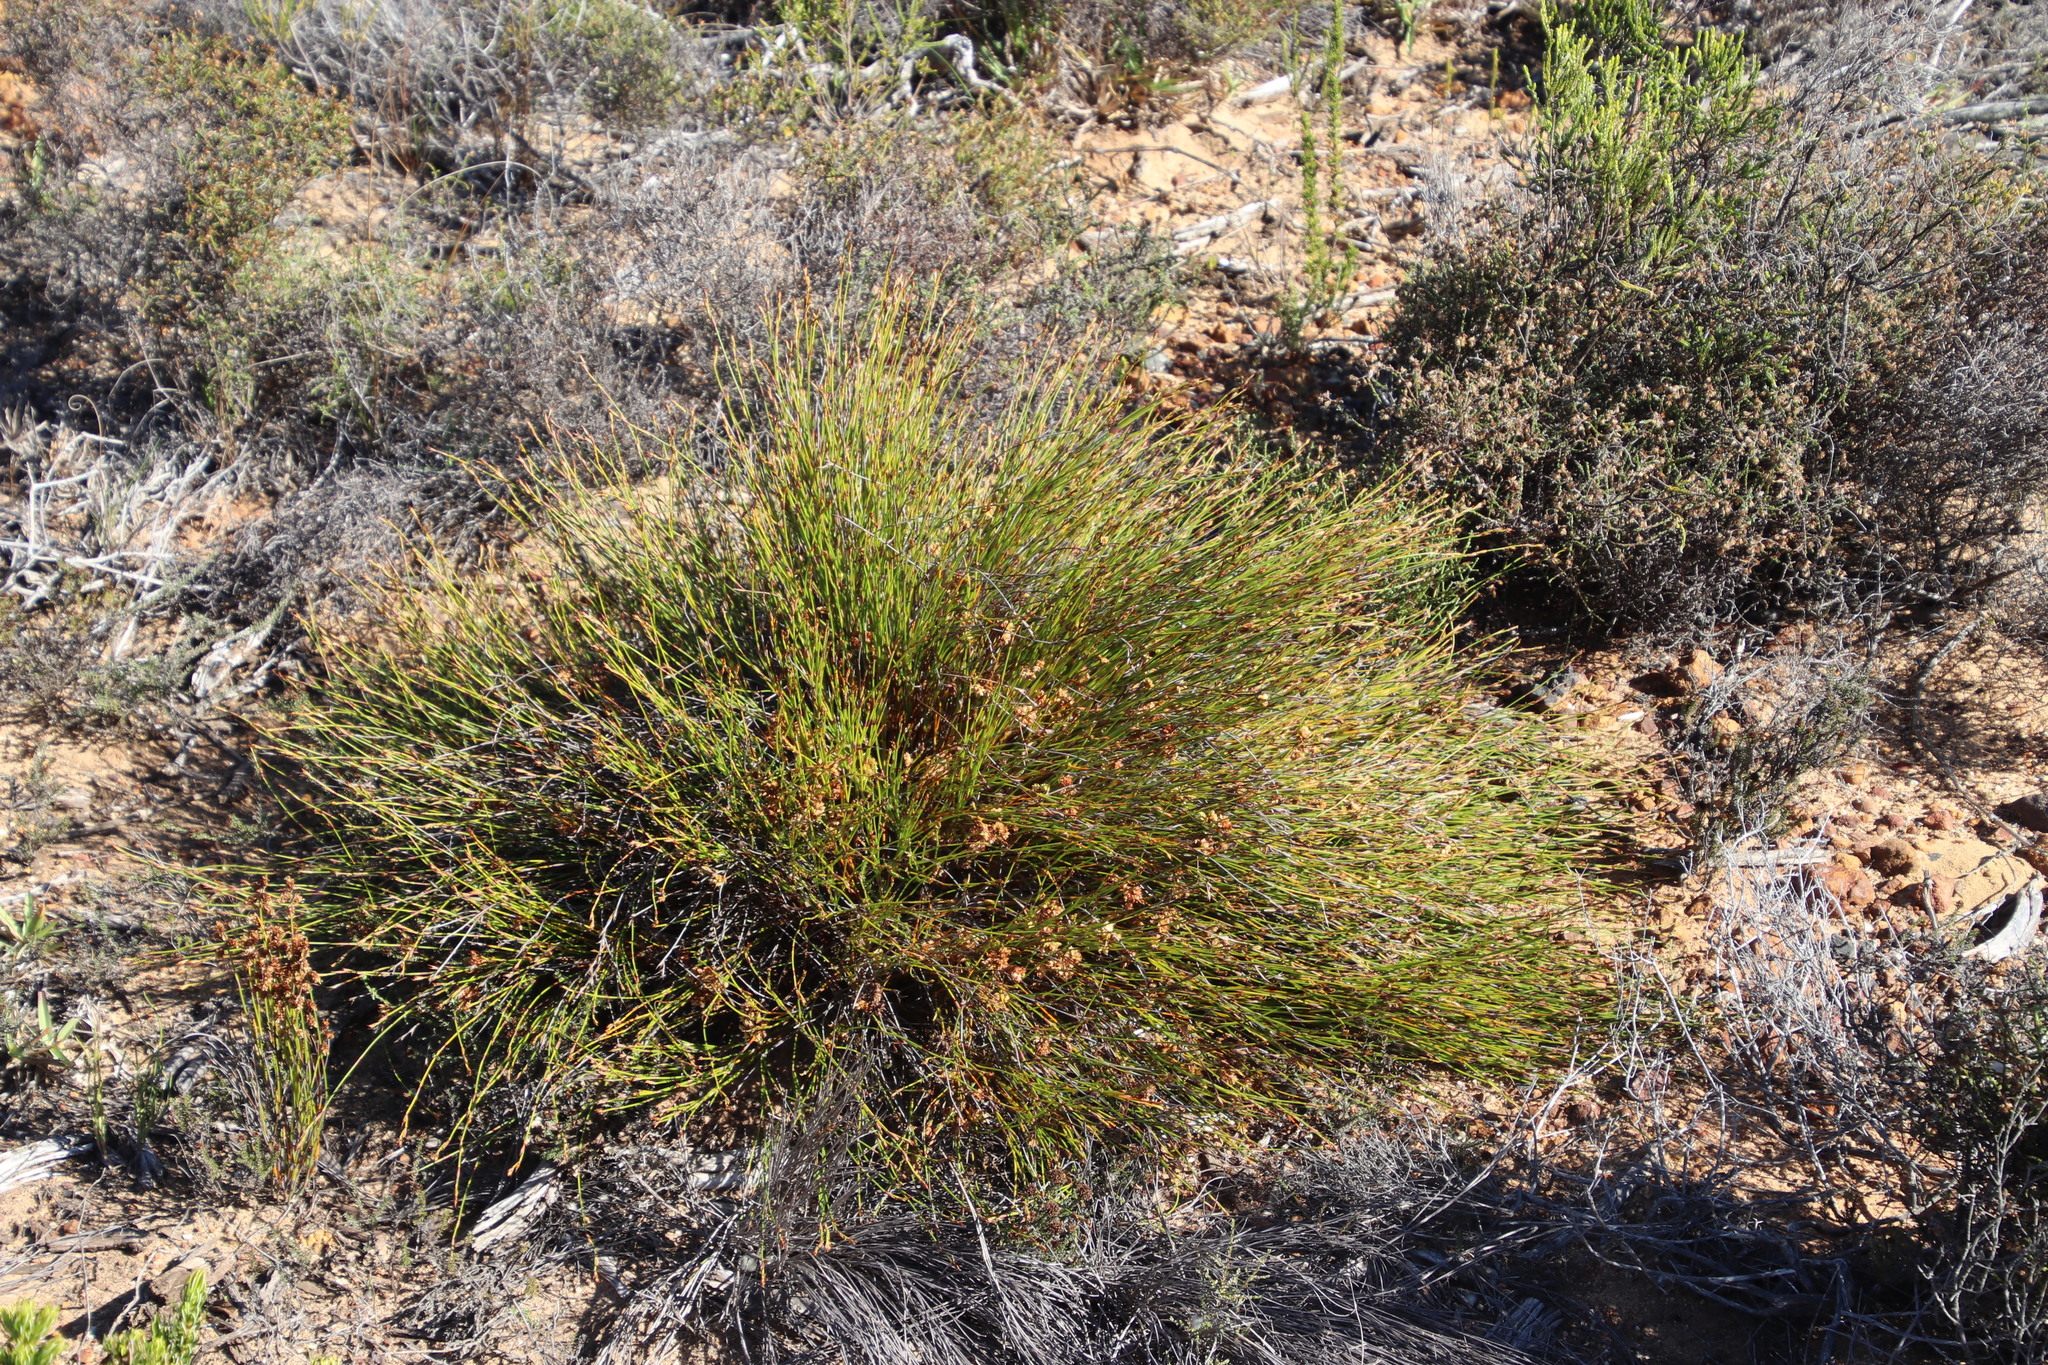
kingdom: Plantae
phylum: Tracheophyta
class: Liliopsida
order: Poales
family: Restionaceae
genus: Mastersiella
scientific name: Mastersiella digitata
